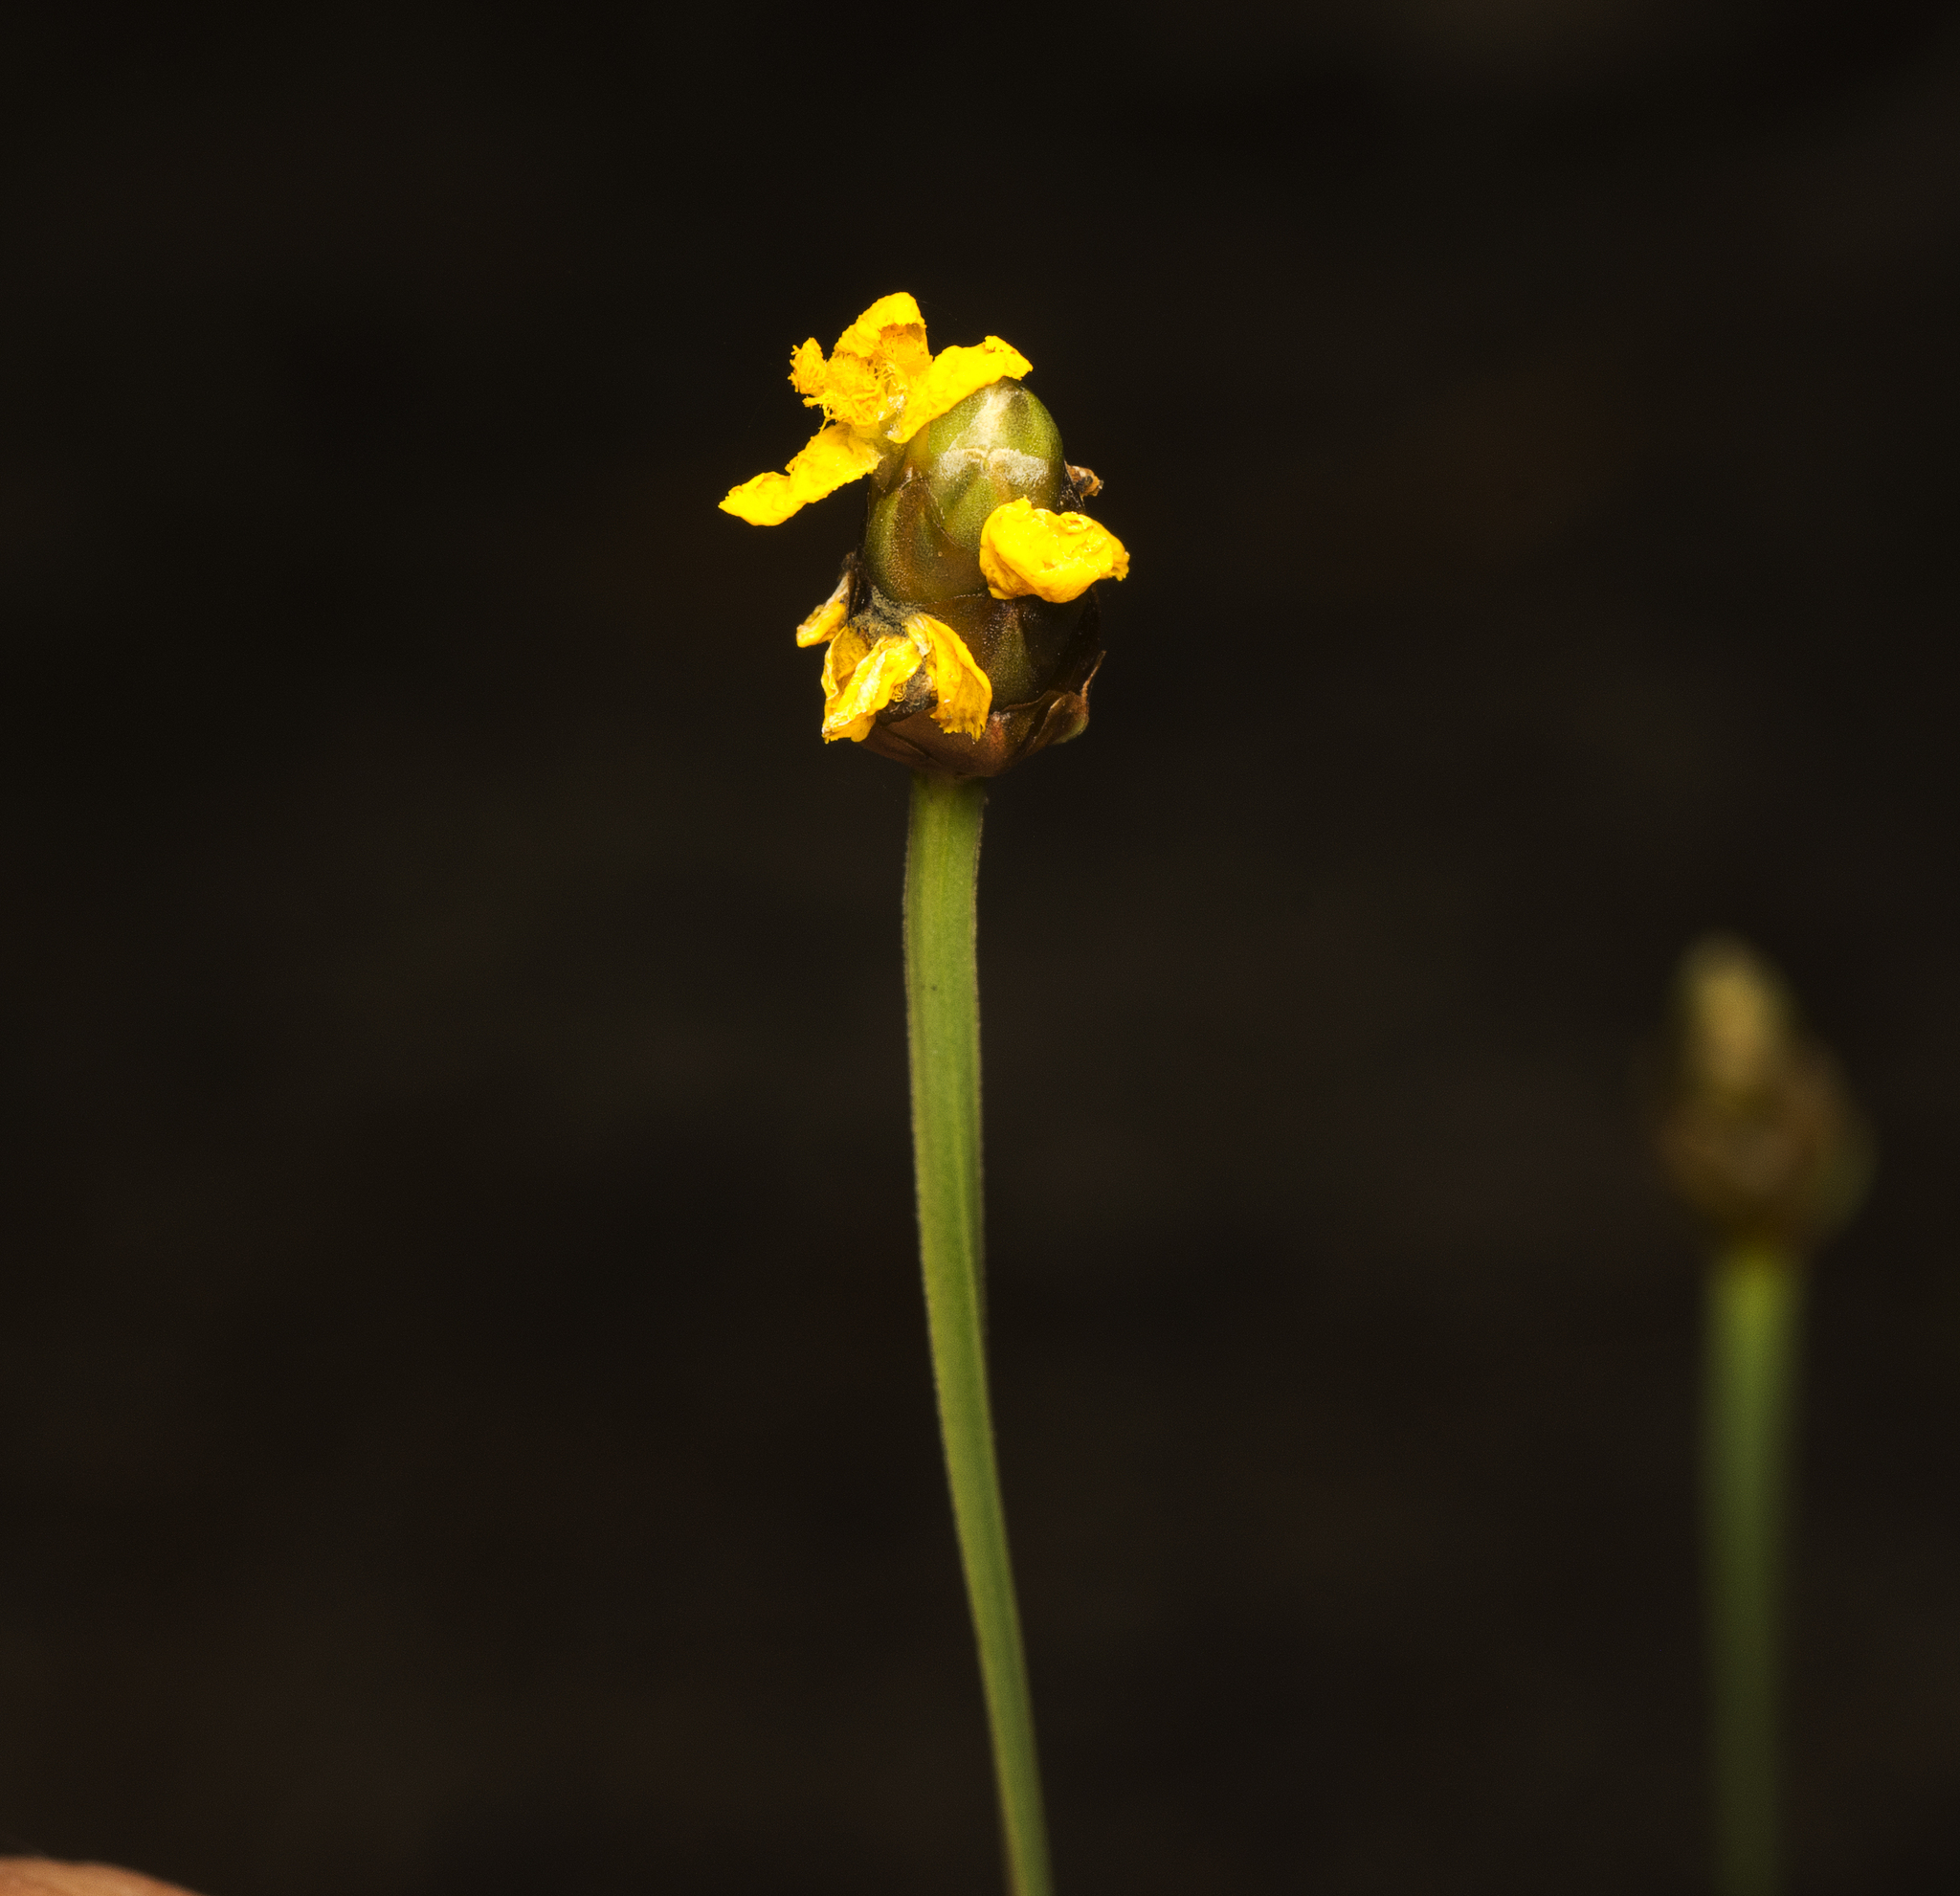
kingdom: Plantae
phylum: Tracheophyta
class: Liliopsida
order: Poales
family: Xyridaceae
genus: Xyris
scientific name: Xyris complanata
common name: Hawai'i yelloweyed grass
